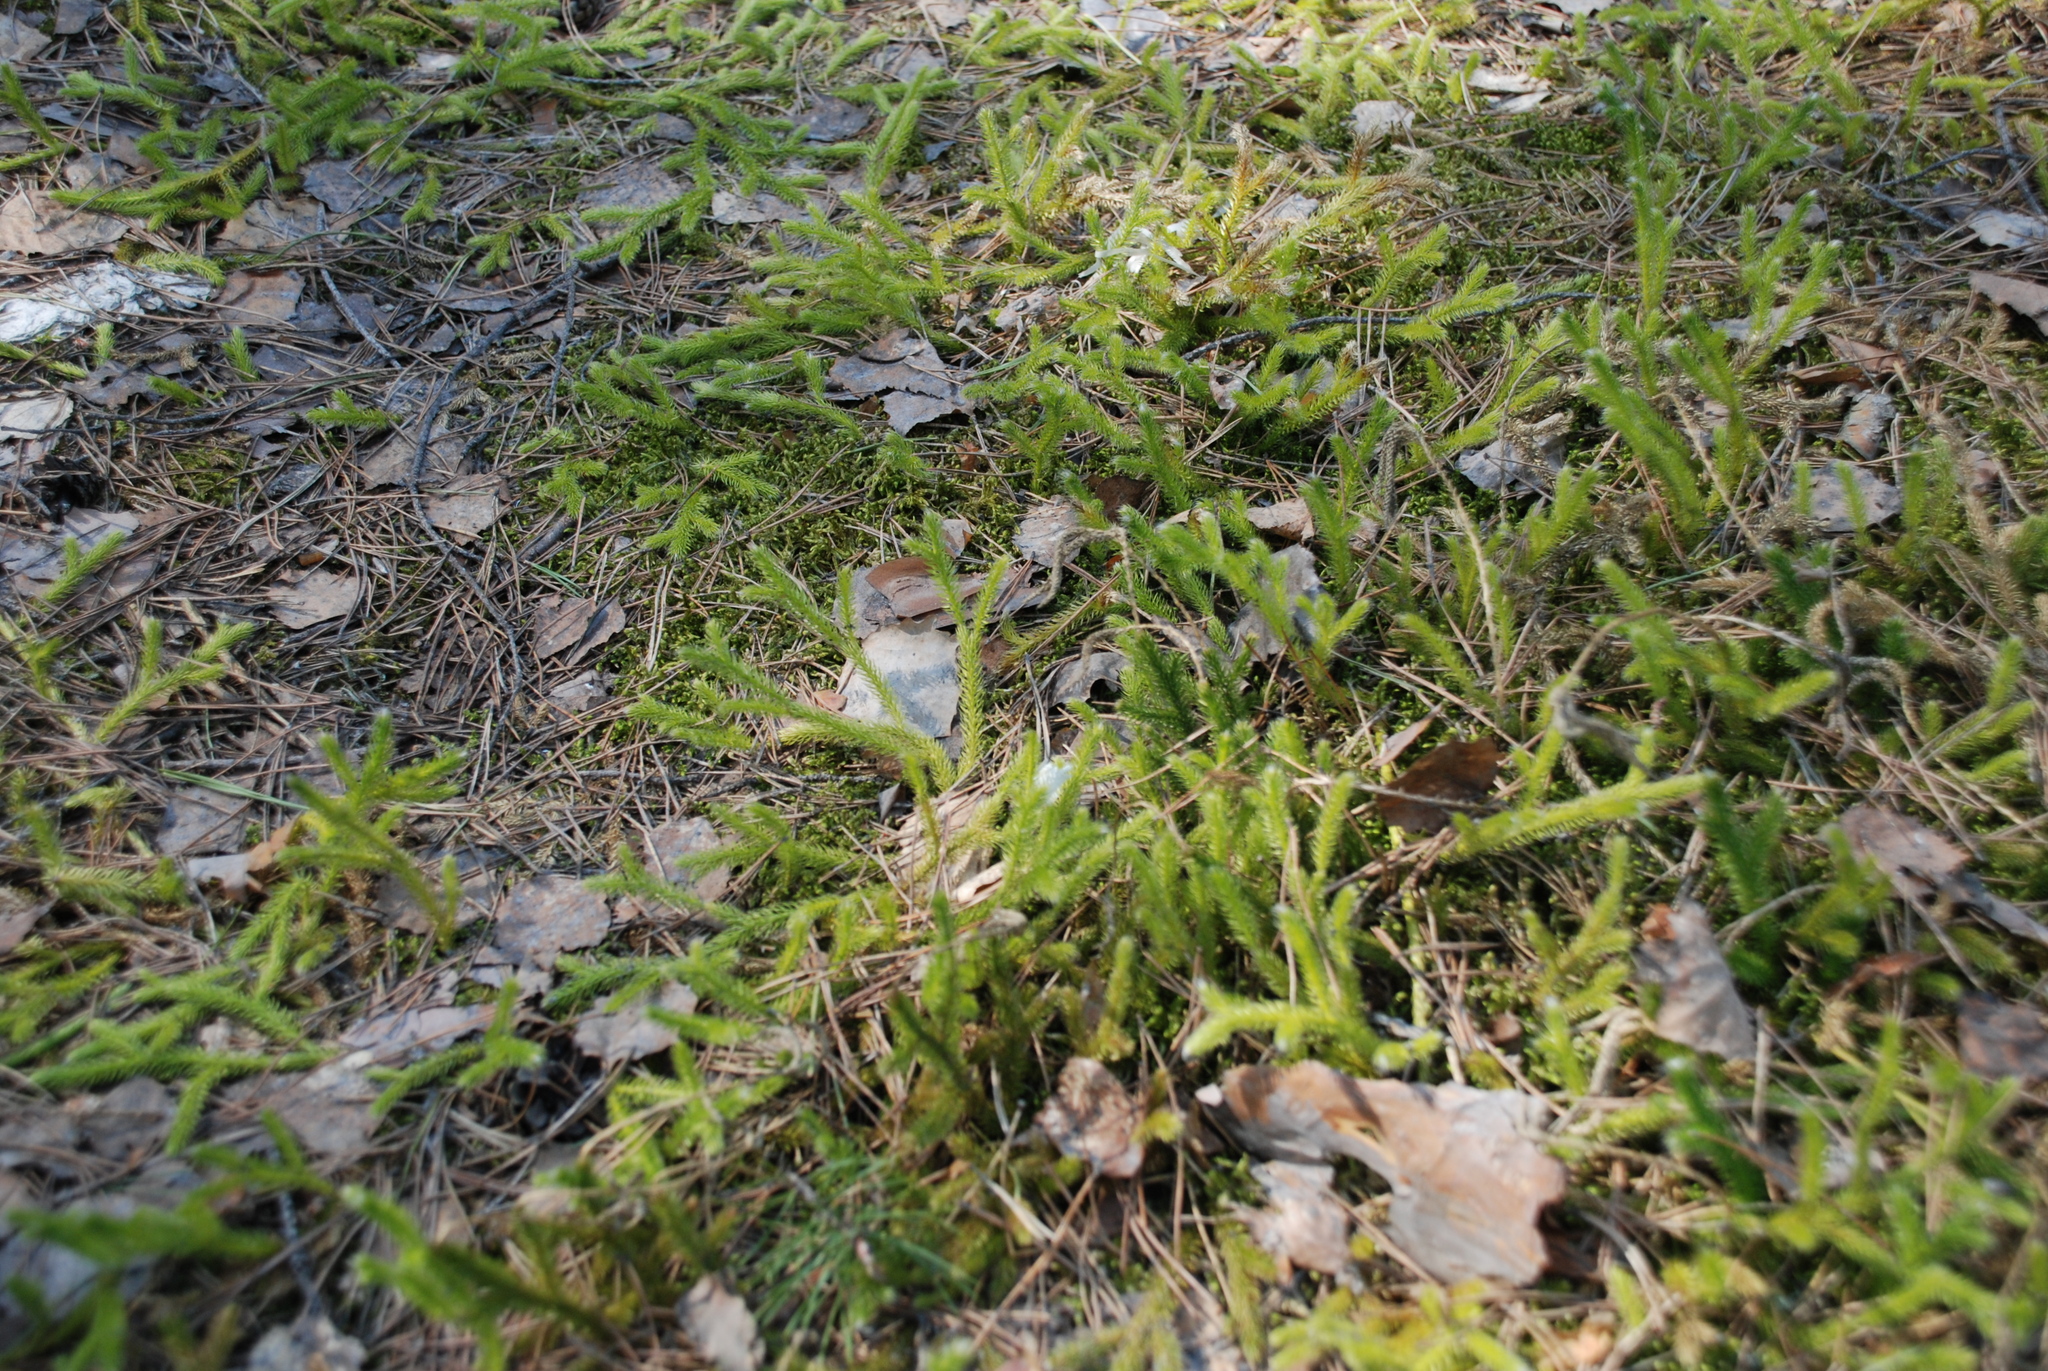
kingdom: Plantae
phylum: Tracheophyta
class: Lycopodiopsida
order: Lycopodiales
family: Lycopodiaceae
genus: Lycopodium
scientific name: Lycopodium clavatum
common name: Stag's-horn clubmoss
